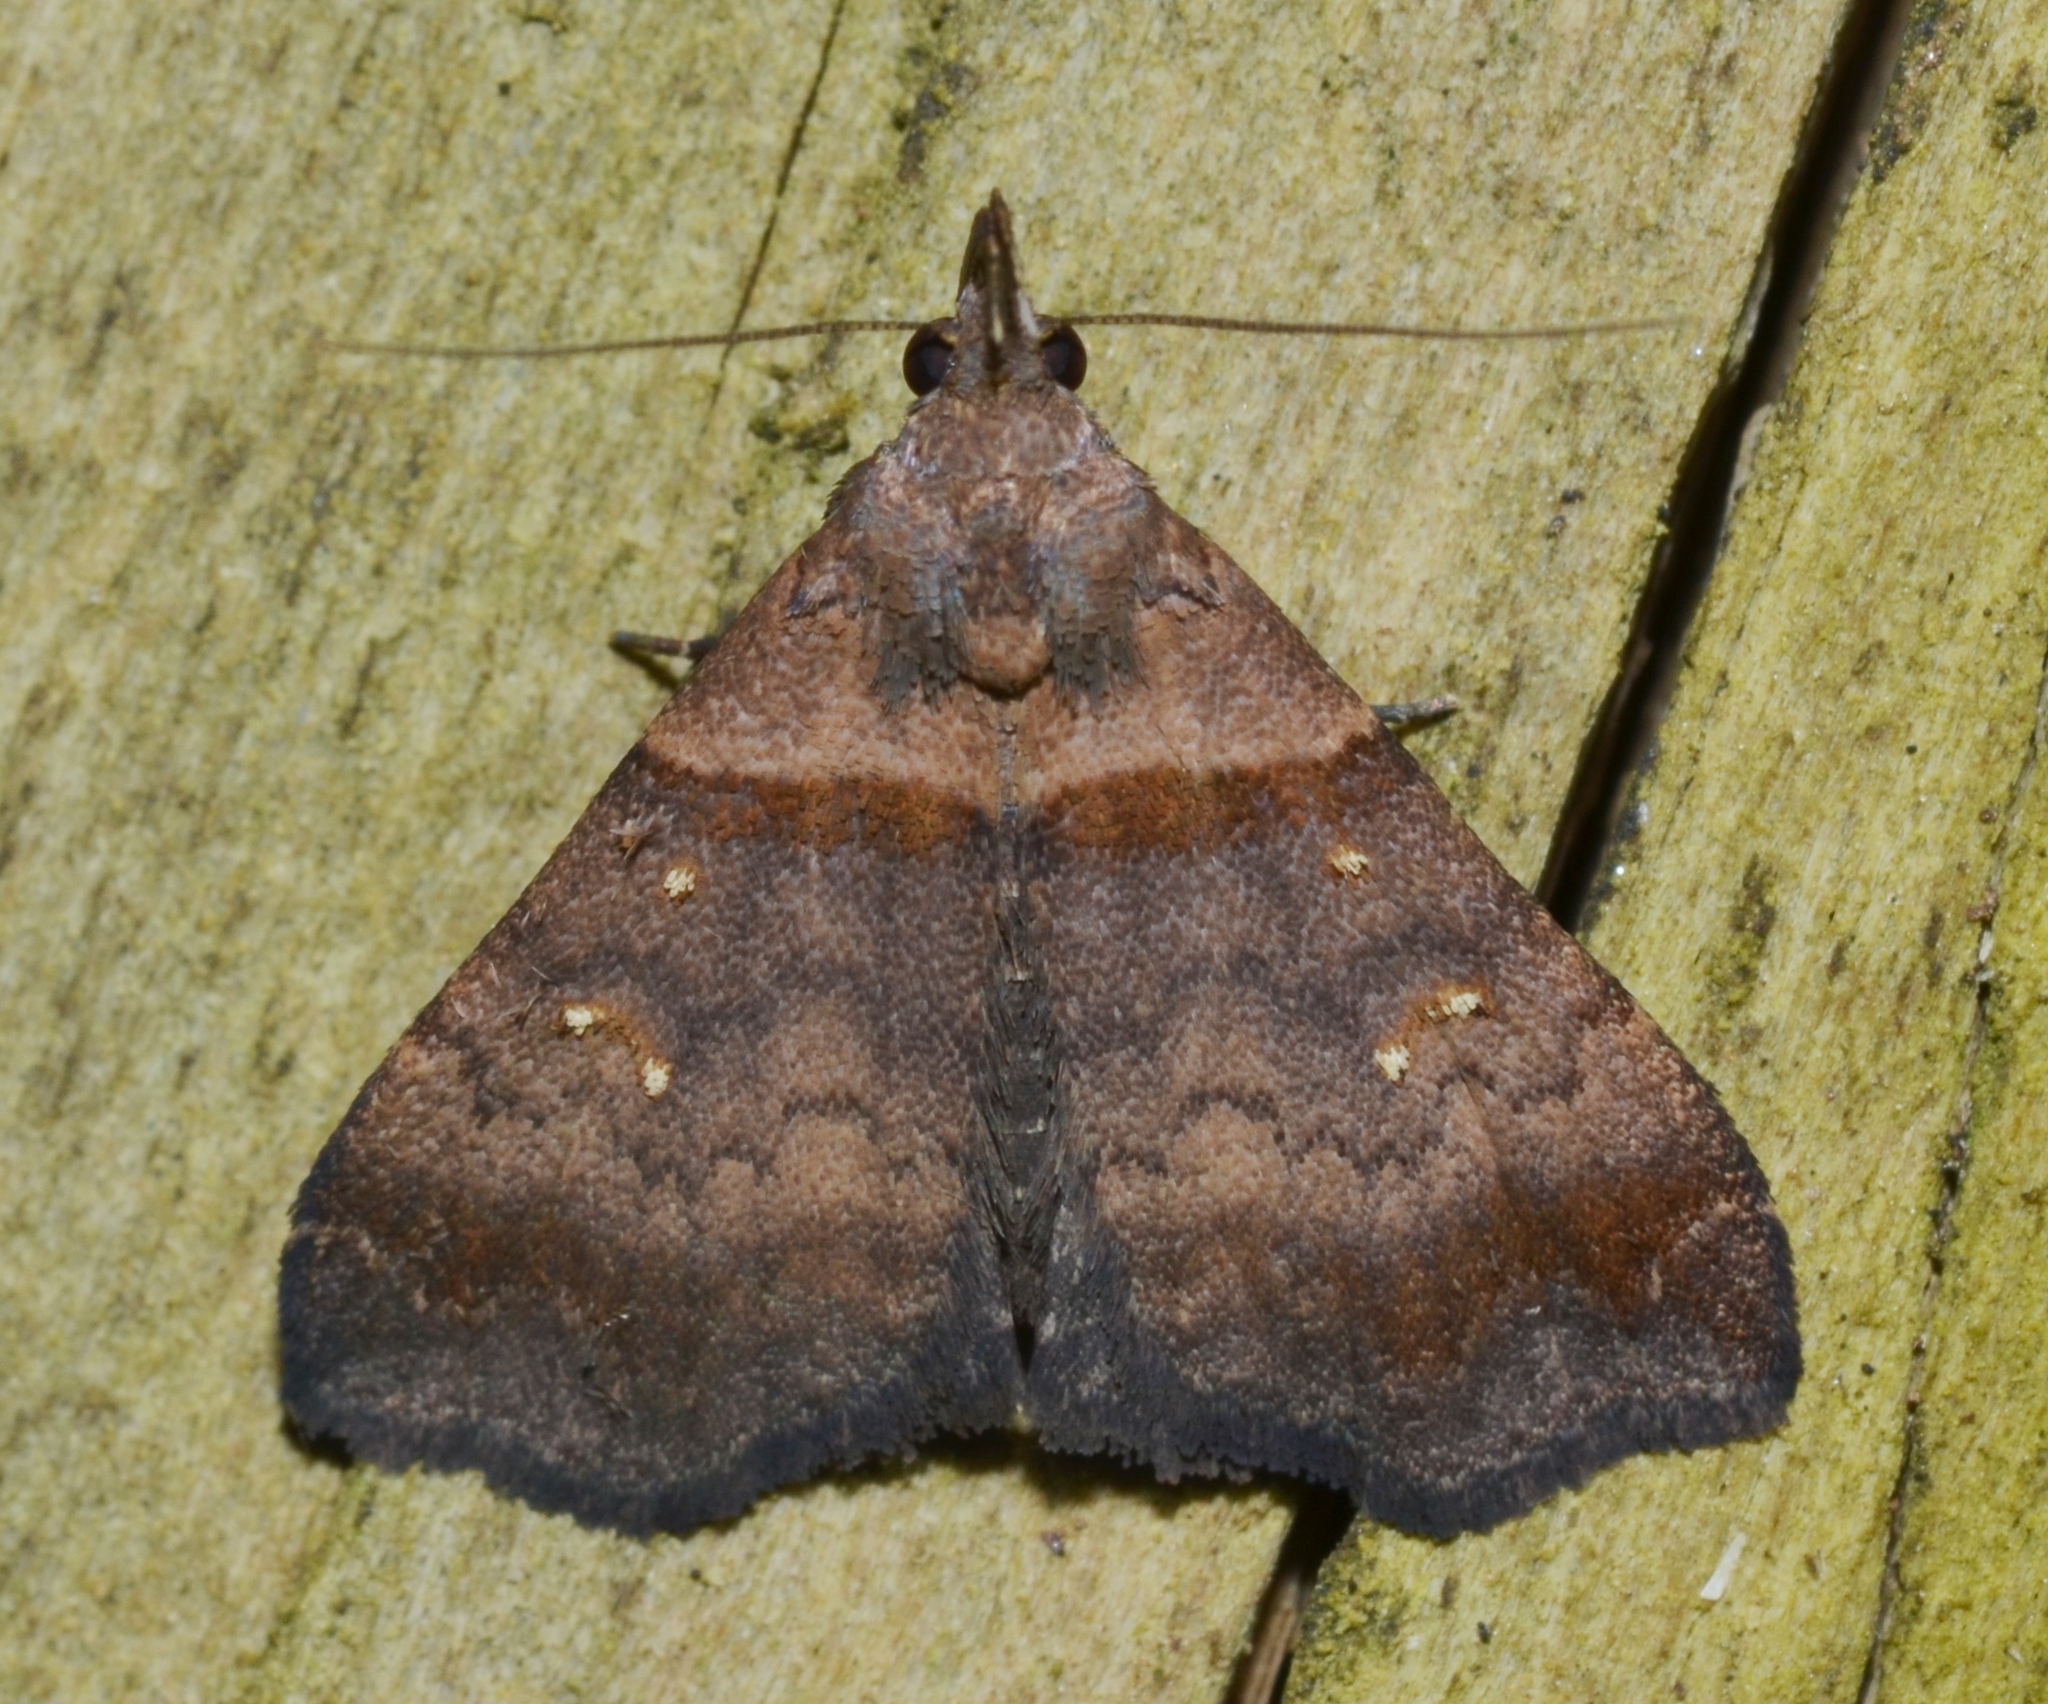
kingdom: Animalia
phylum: Arthropoda
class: Insecta
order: Lepidoptera
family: Erebidae
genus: Lascoria
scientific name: Lascoria ambigualis
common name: Ambiguous moth
